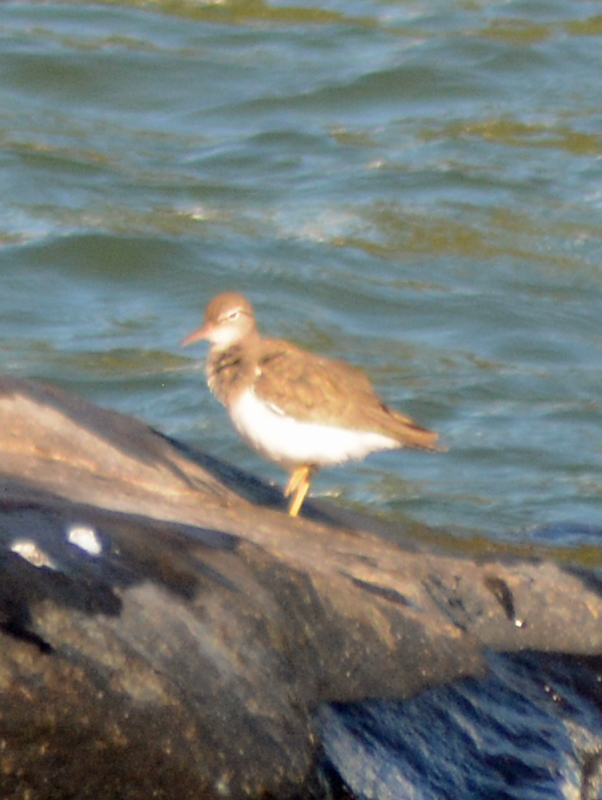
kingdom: Animalia
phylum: Chordata
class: Aves
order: Charadriiformes
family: Scolopacidae
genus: Actitis
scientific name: Actitis macularius
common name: Spotted sandpiper
